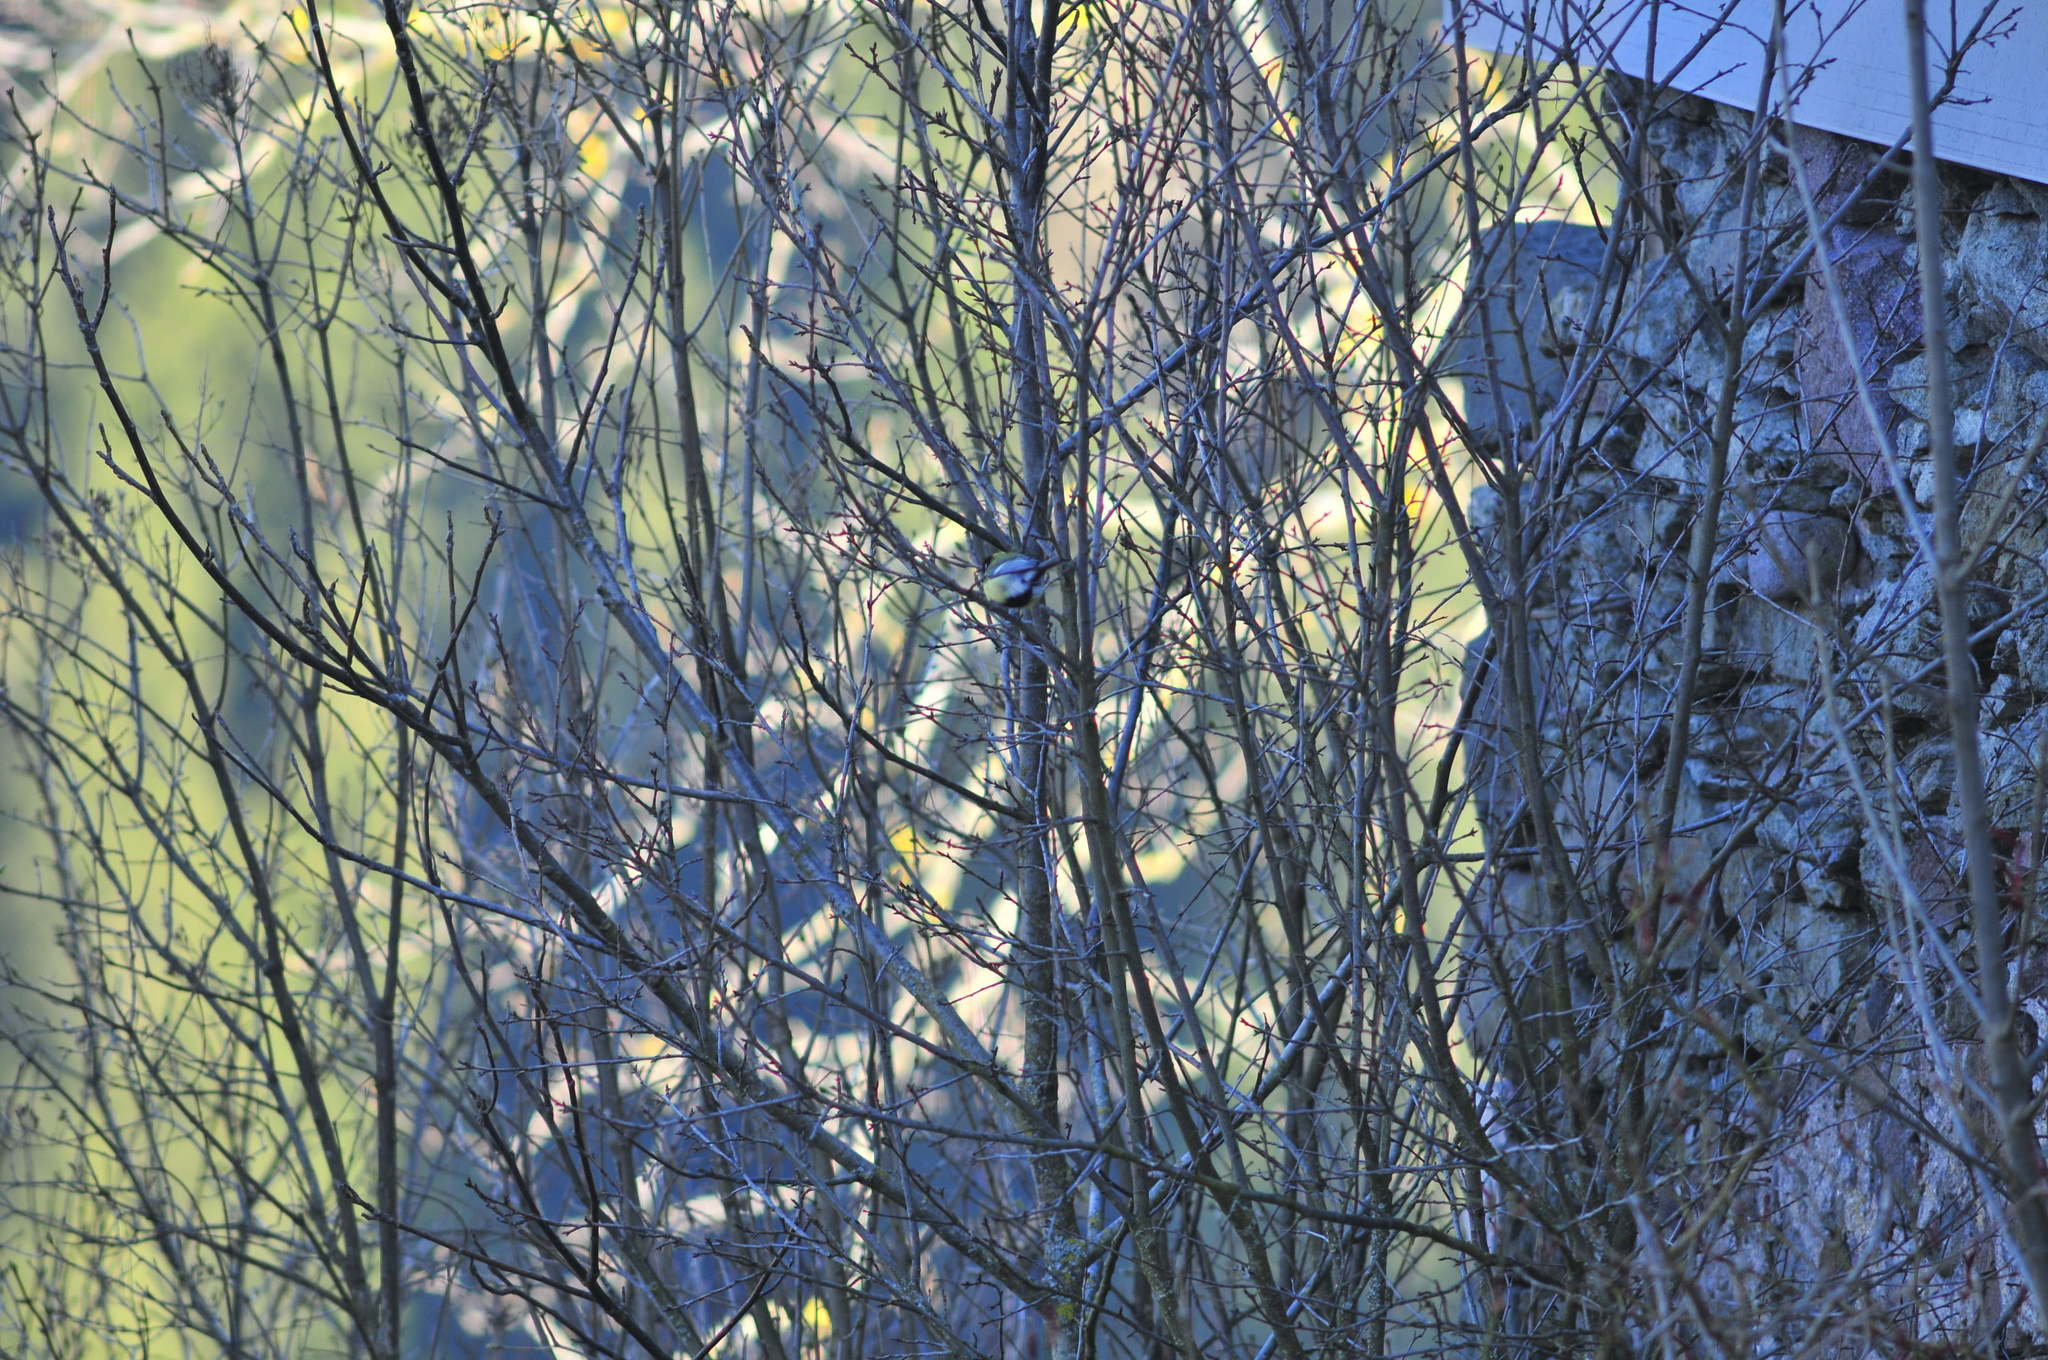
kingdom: Animalia
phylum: Chordata
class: Aves
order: Passeriformes
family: Paridae
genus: Parus
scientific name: Parus major
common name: Great tit
